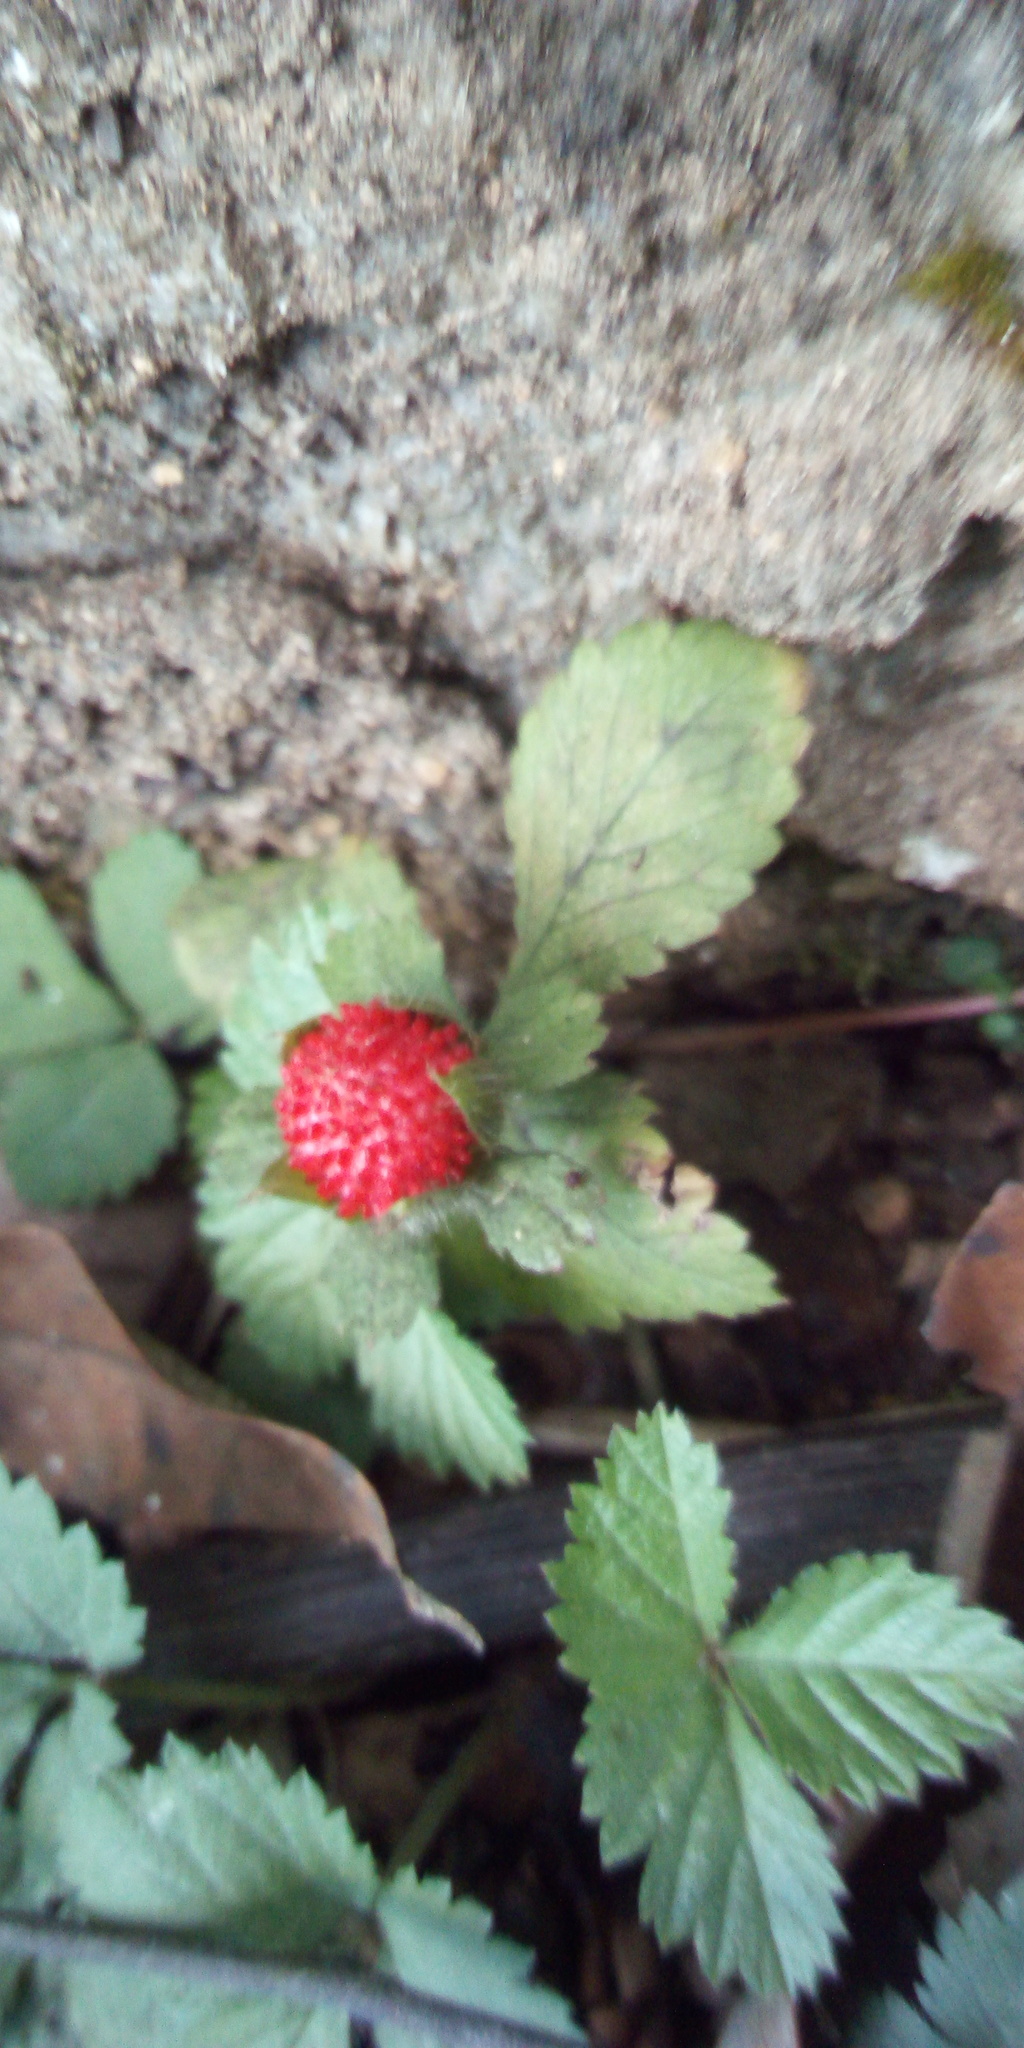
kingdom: Plantae
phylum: Tracheophyta
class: Magnoliopsida
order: Rosales
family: Rosaceae
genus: Potentilla
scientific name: Potentilla indica
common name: Yellow-flowered strawberry
